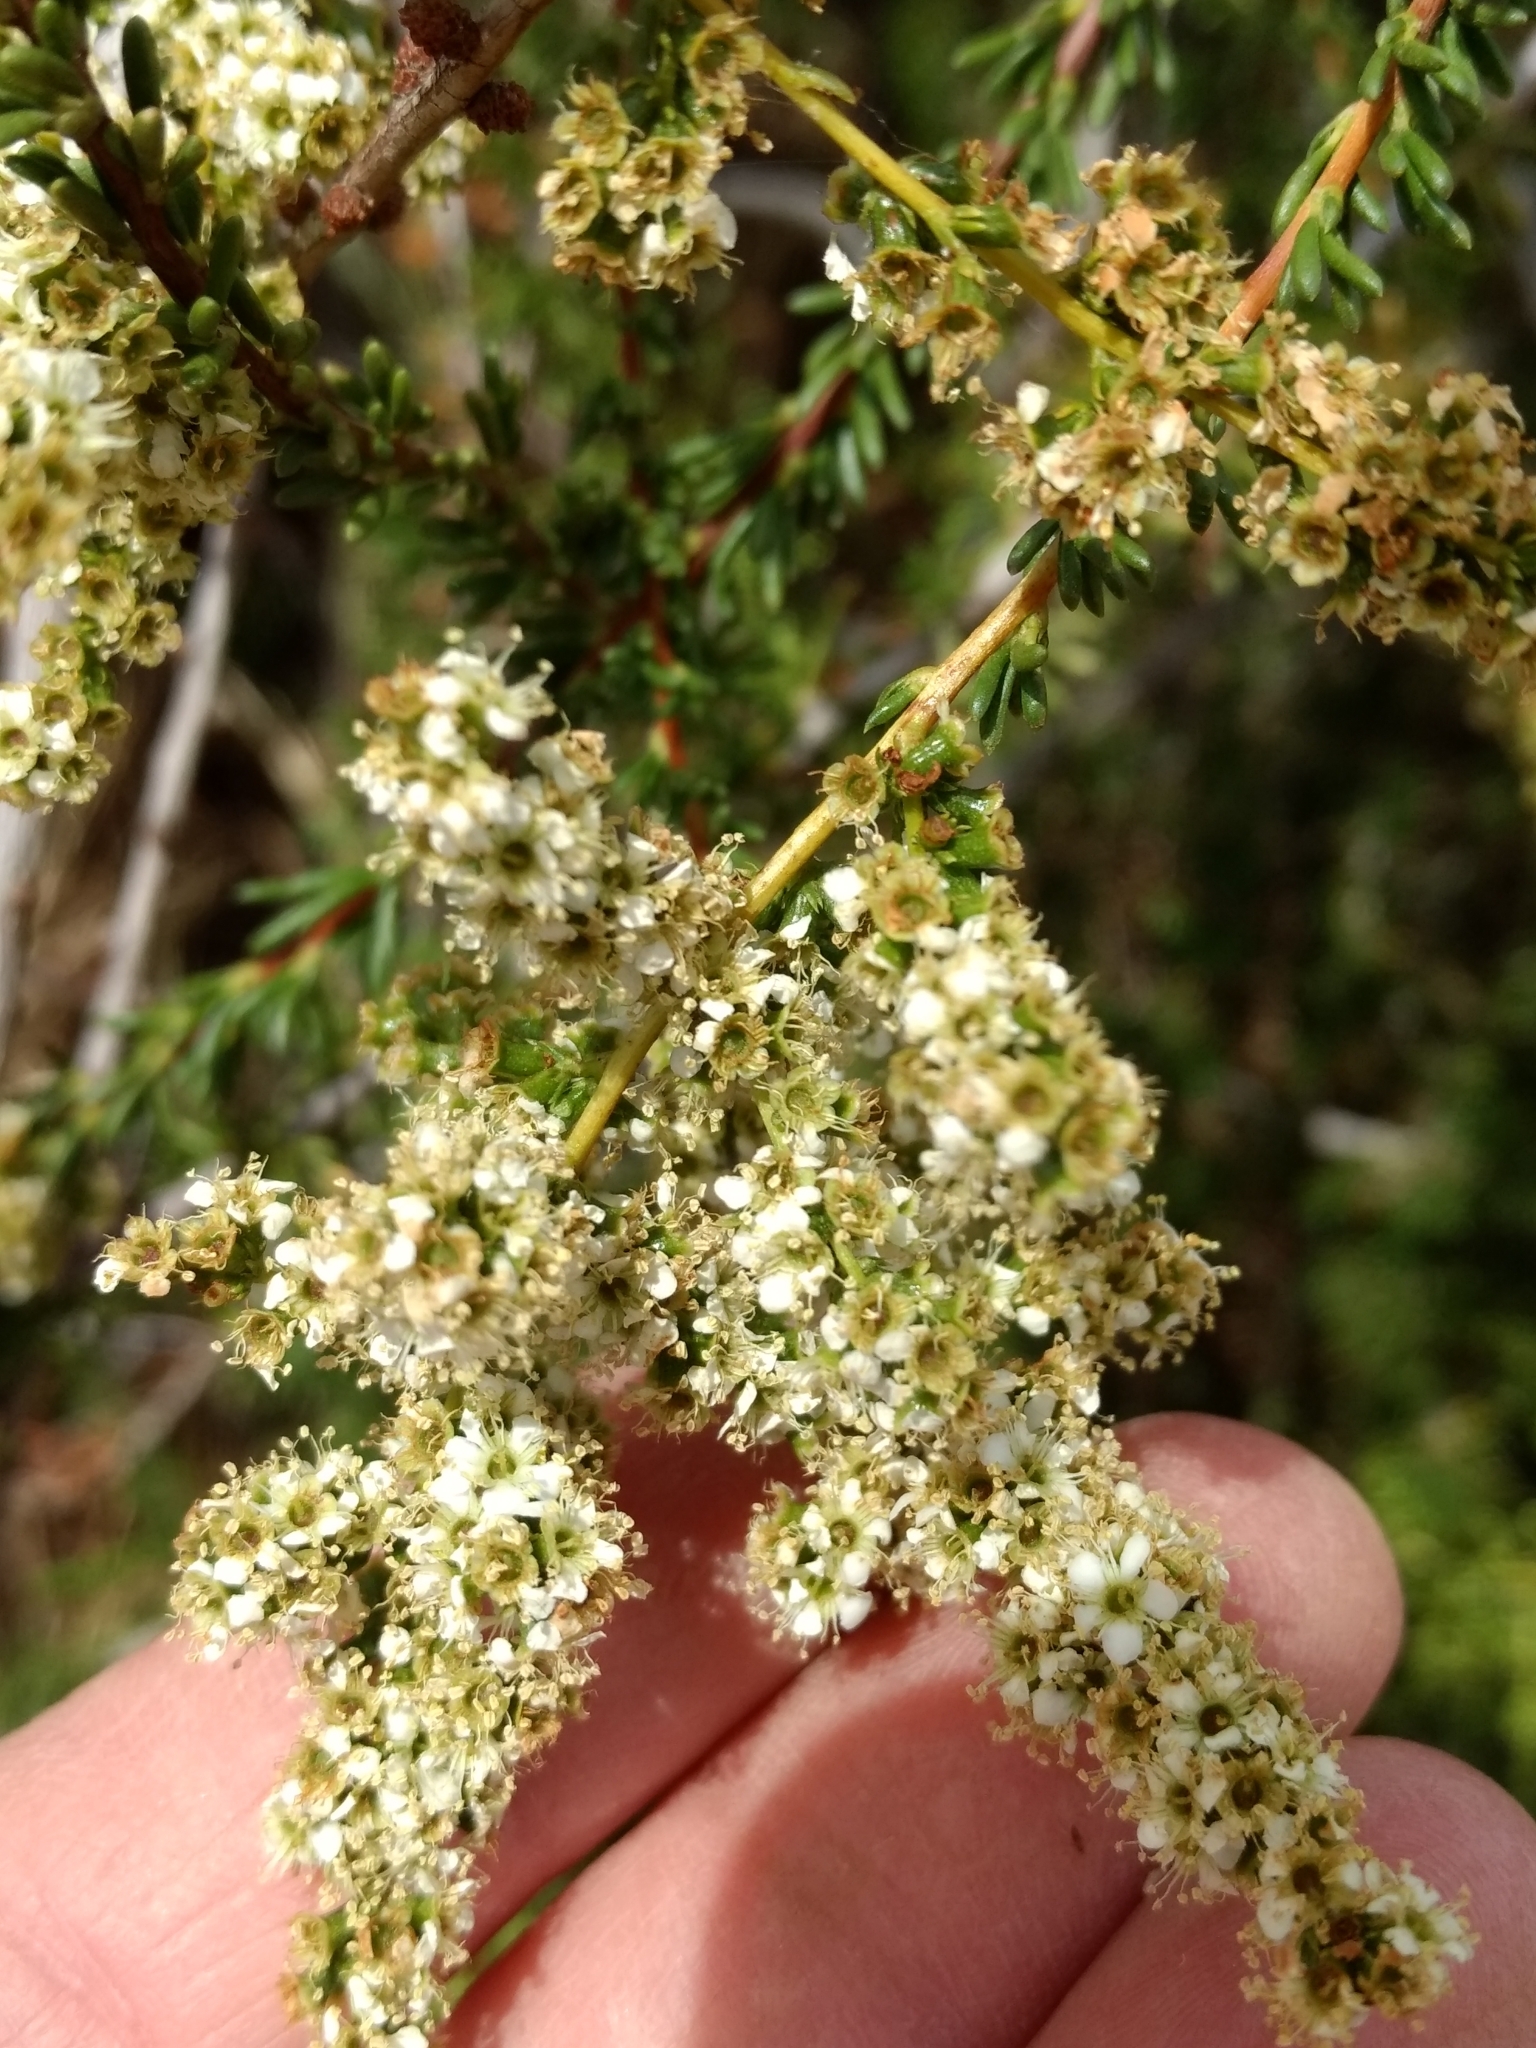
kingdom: Plantae
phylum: Tracheophyta
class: Magnoliopsida
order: Rosales
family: Rosaceae
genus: Adenostoma
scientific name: Adenostoma fasciculatum
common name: Chamise
